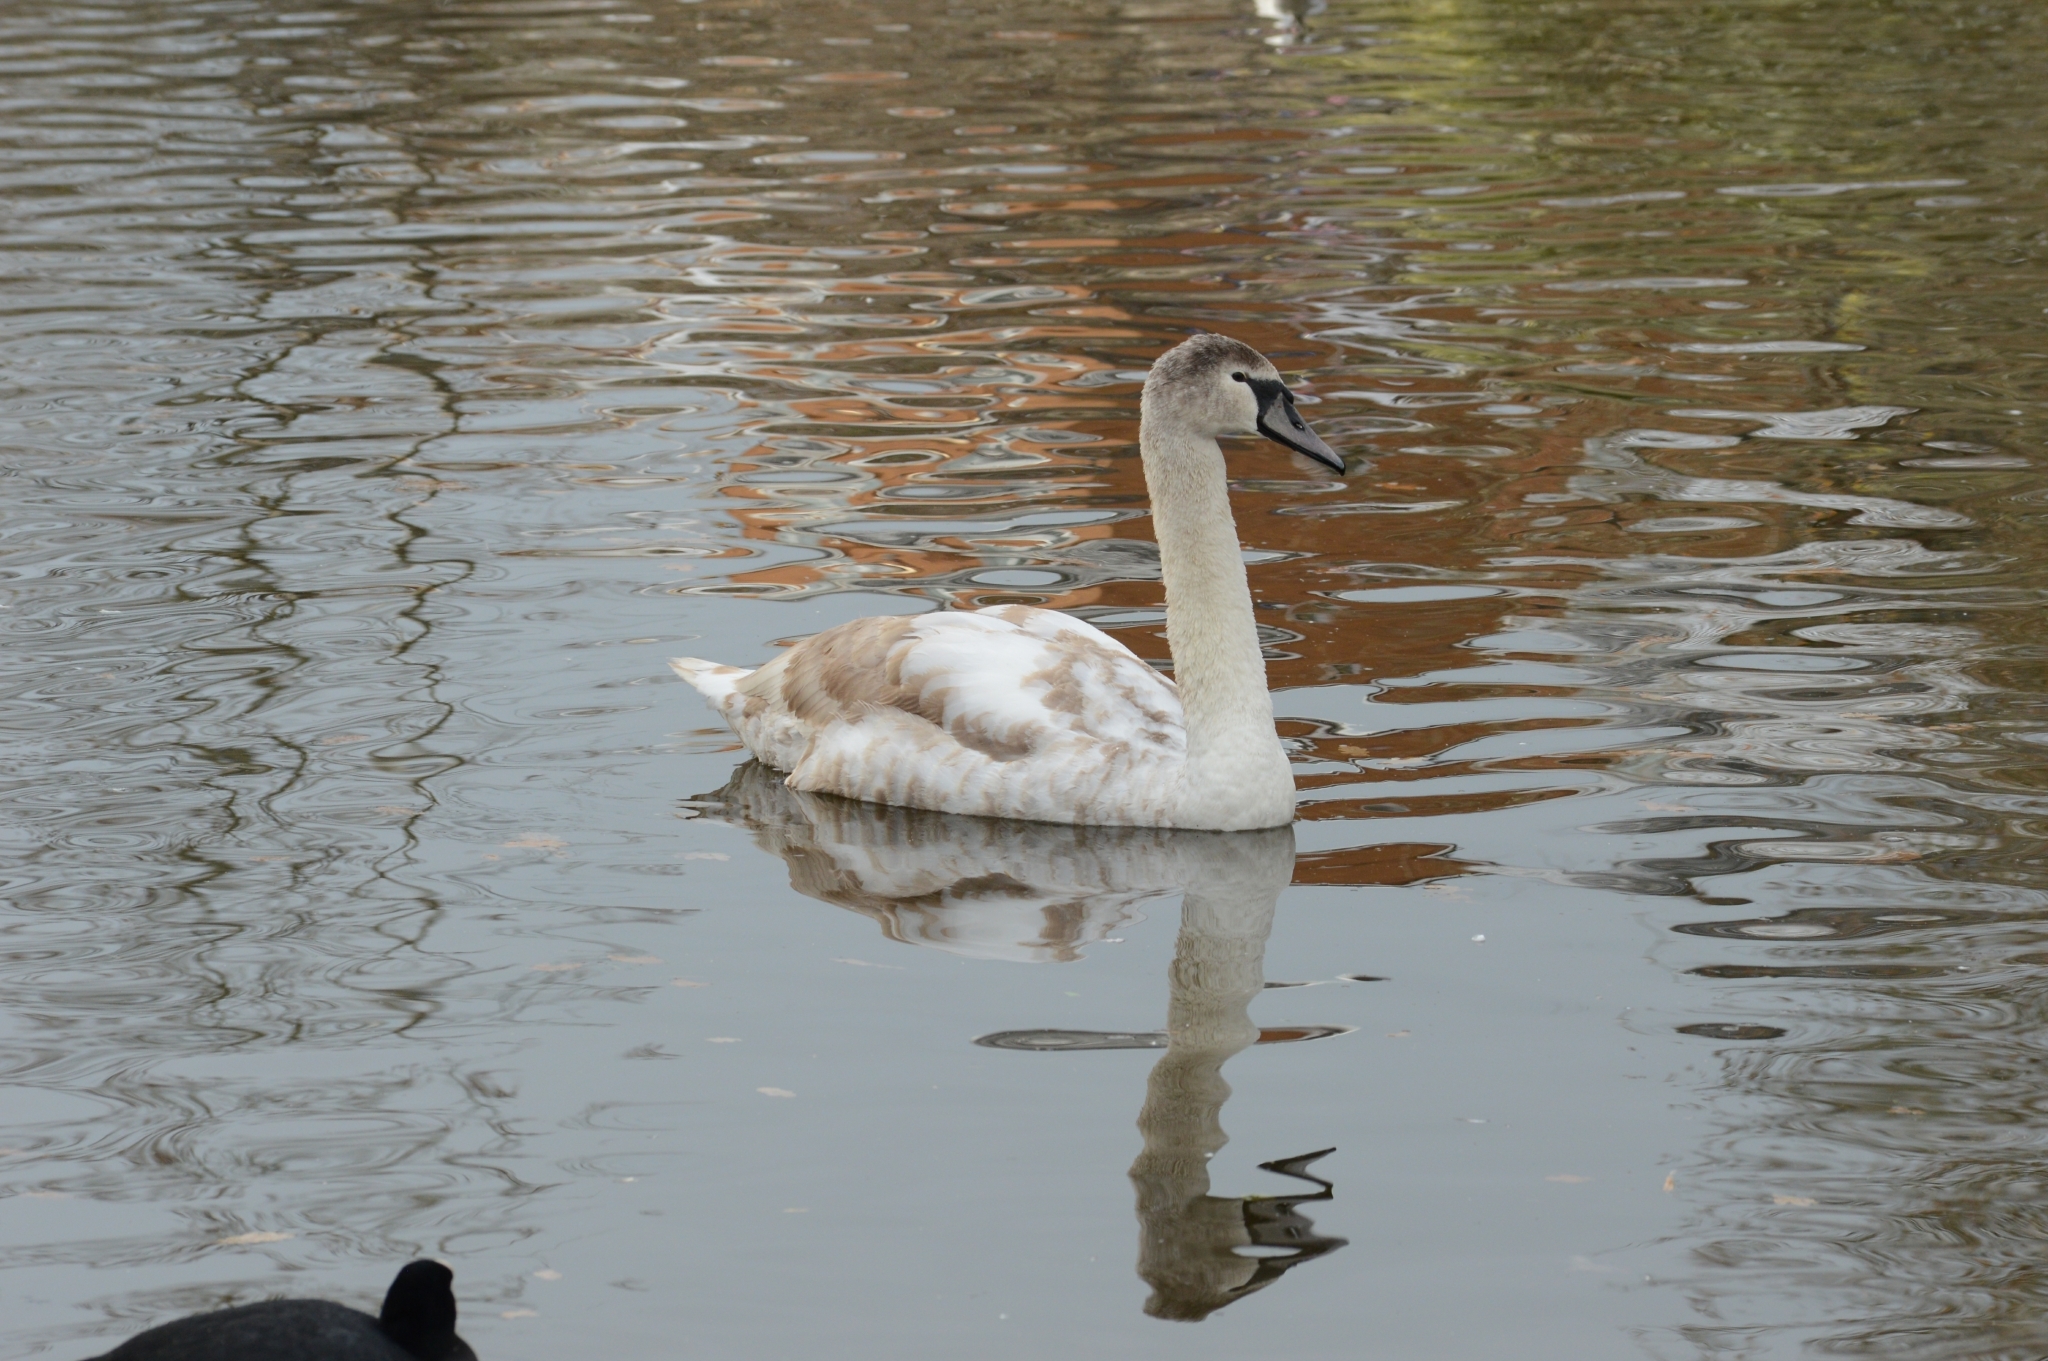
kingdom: Animalia
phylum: Chordata
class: Aves
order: Anseriformes
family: Anatidae
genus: Cygnus
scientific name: Cygnus olor
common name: Mute swan
